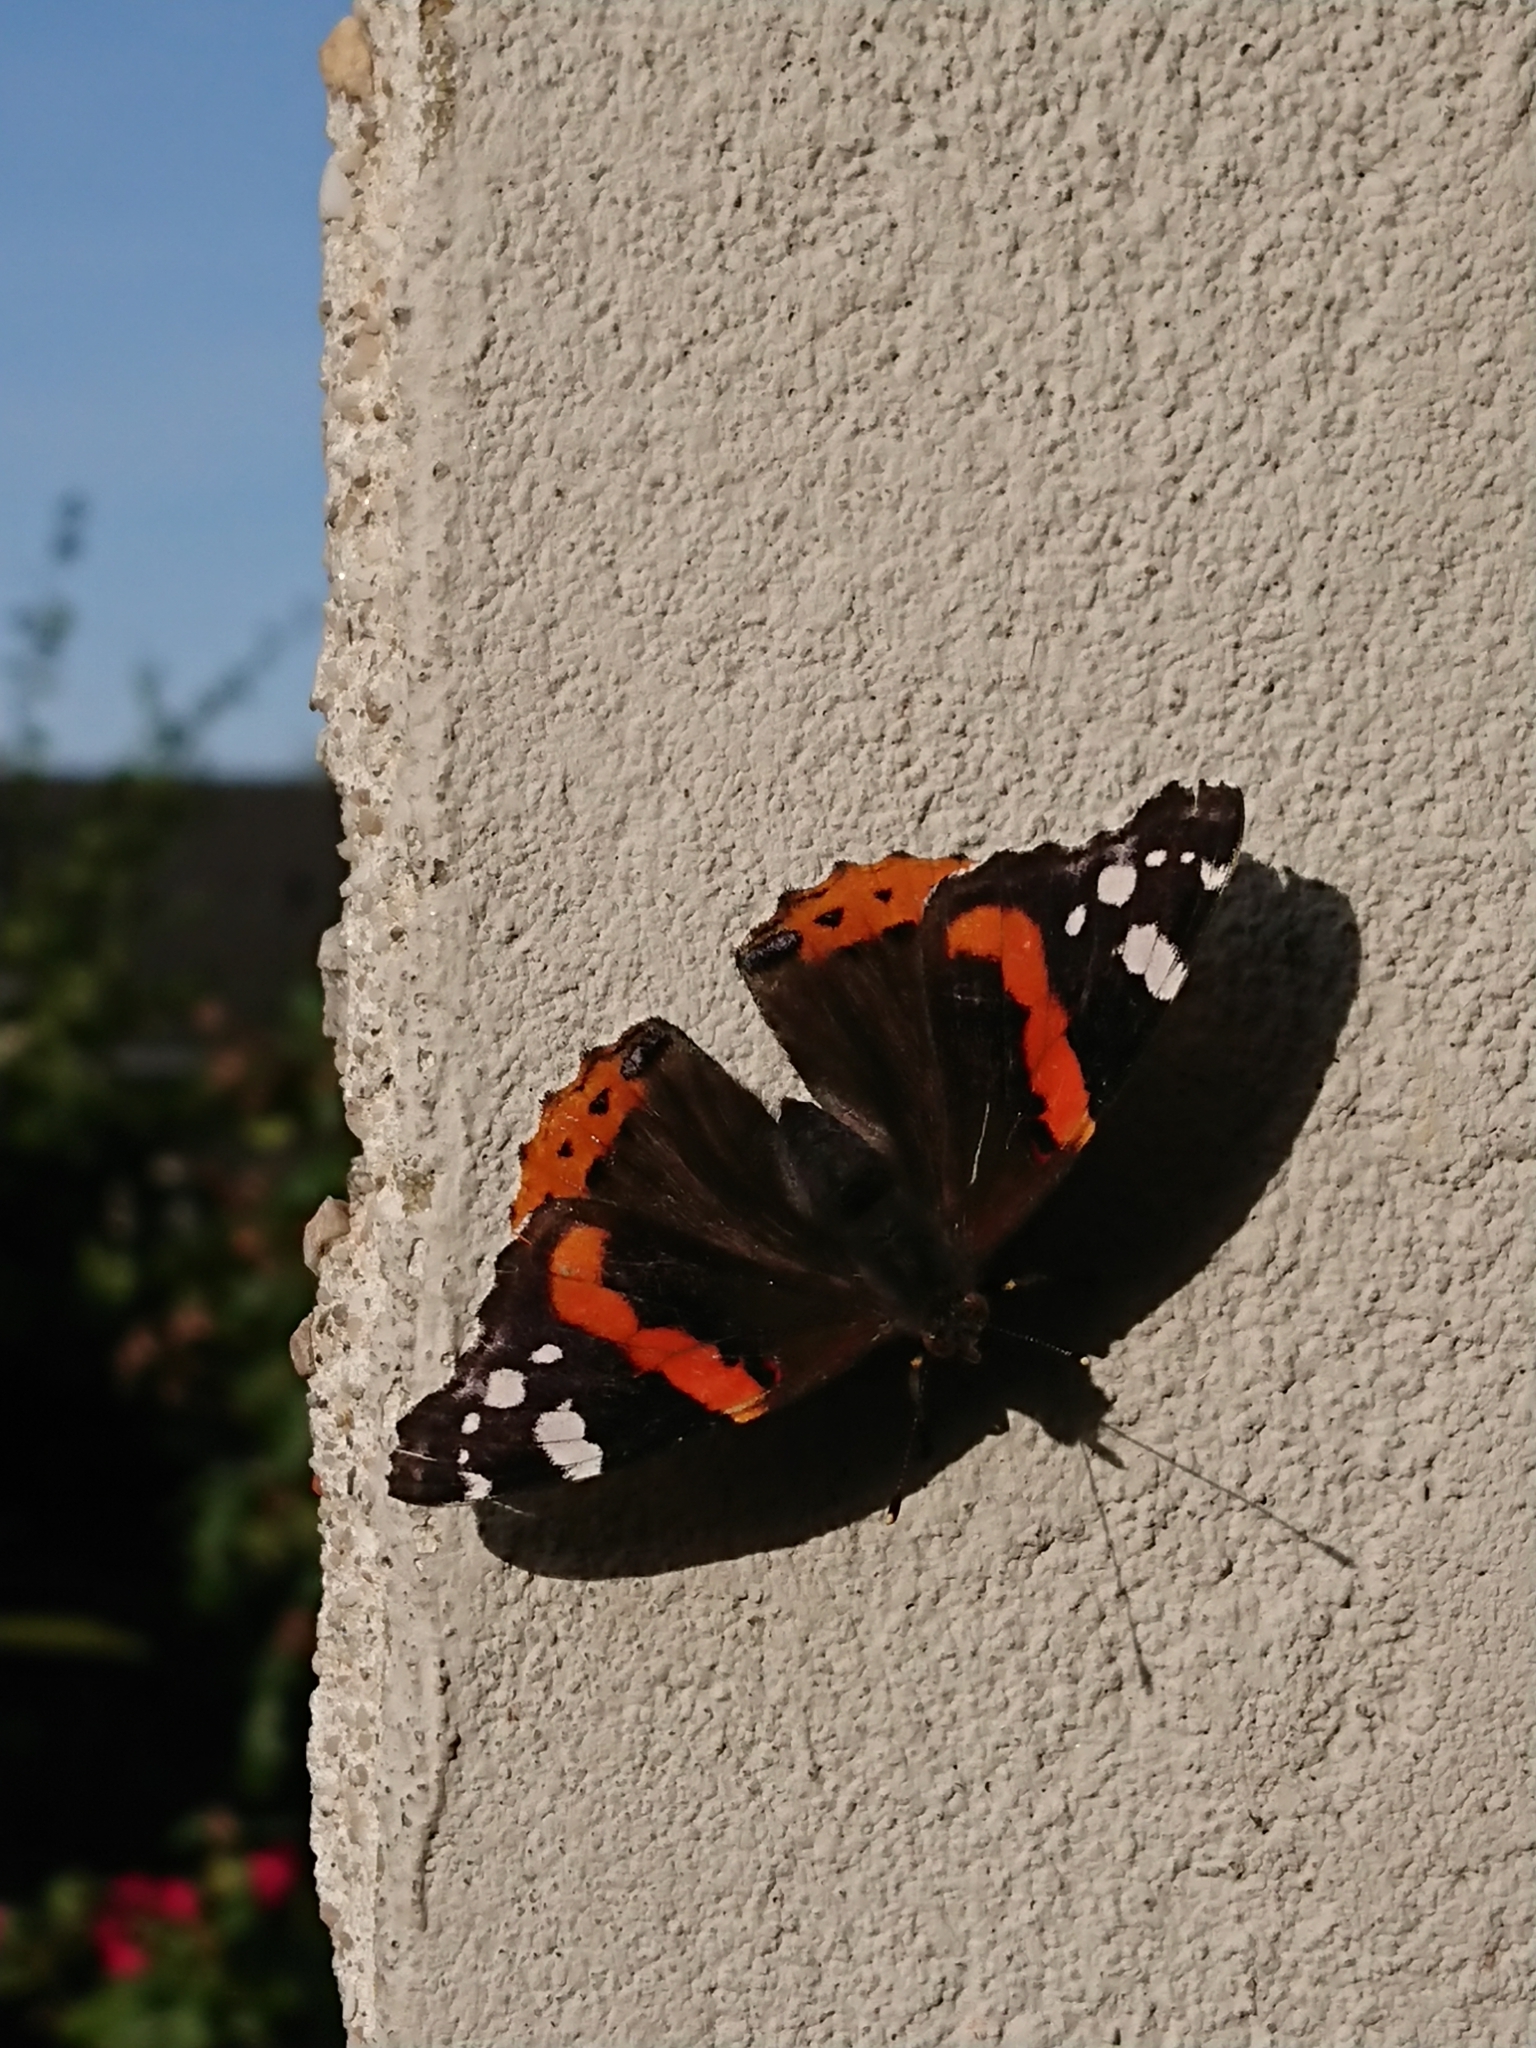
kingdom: Animalia
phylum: Arthropoda
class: Insecta
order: Lepidoptera
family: Nymphalidae
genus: Vanessa
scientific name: Vanessa atalanta
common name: Red admiral
